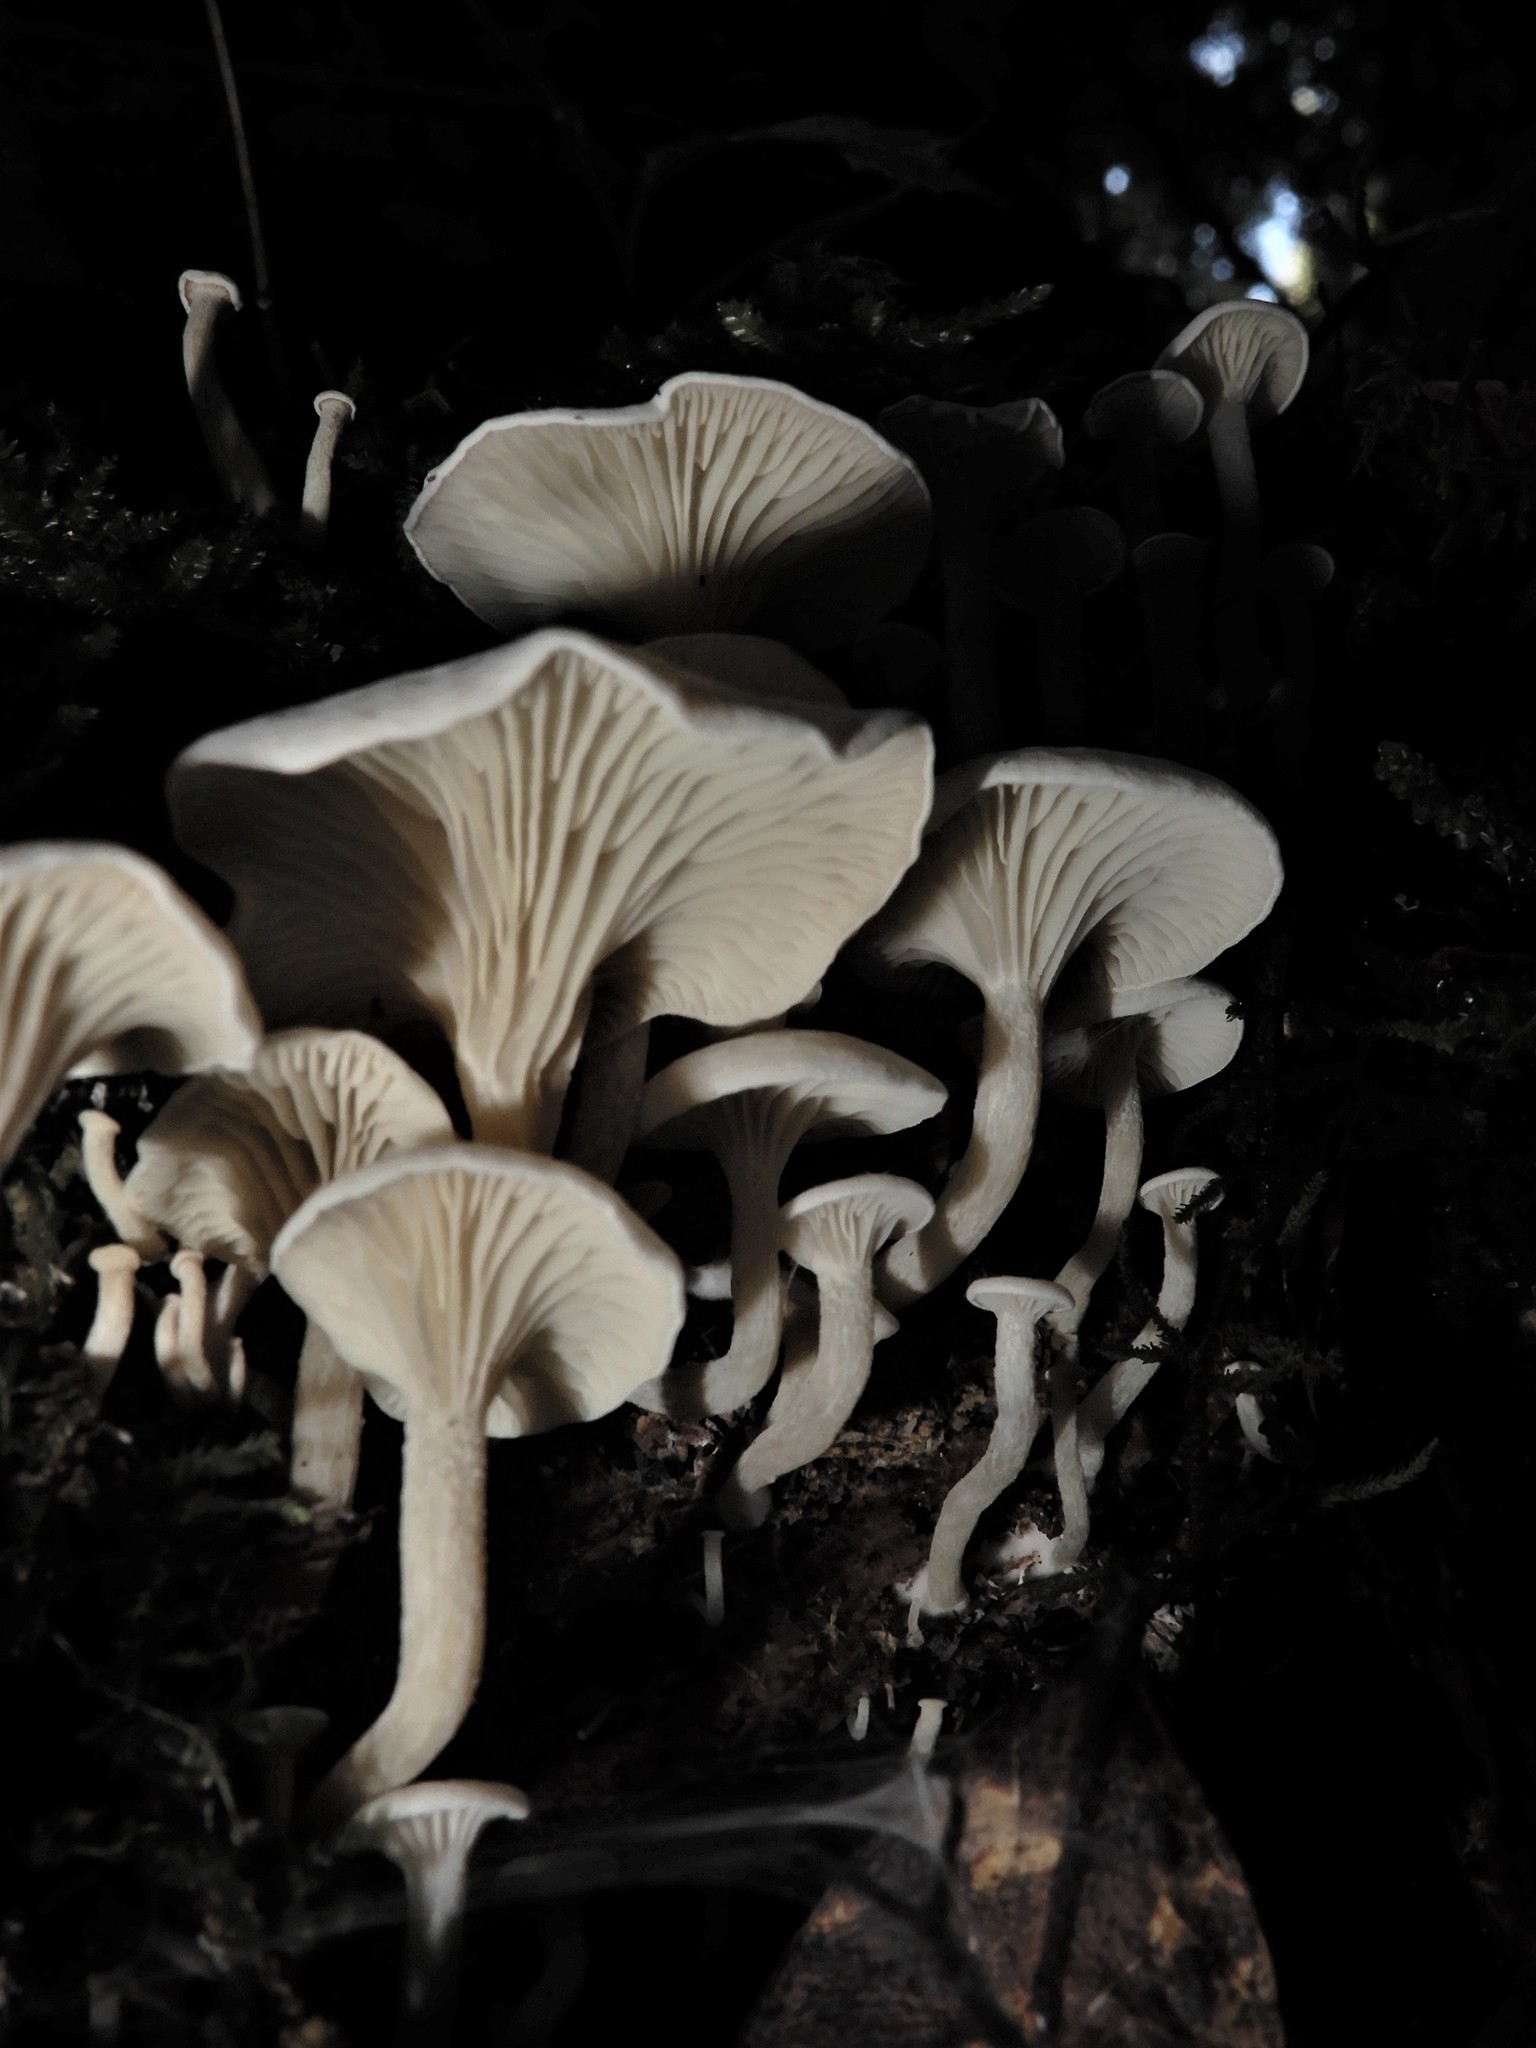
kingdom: Fungi
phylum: Basidiomycota
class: Agaricomycetes
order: Agaricales
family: Tricholomataceae
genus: Rhizocybe
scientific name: Rhizocybe albida
